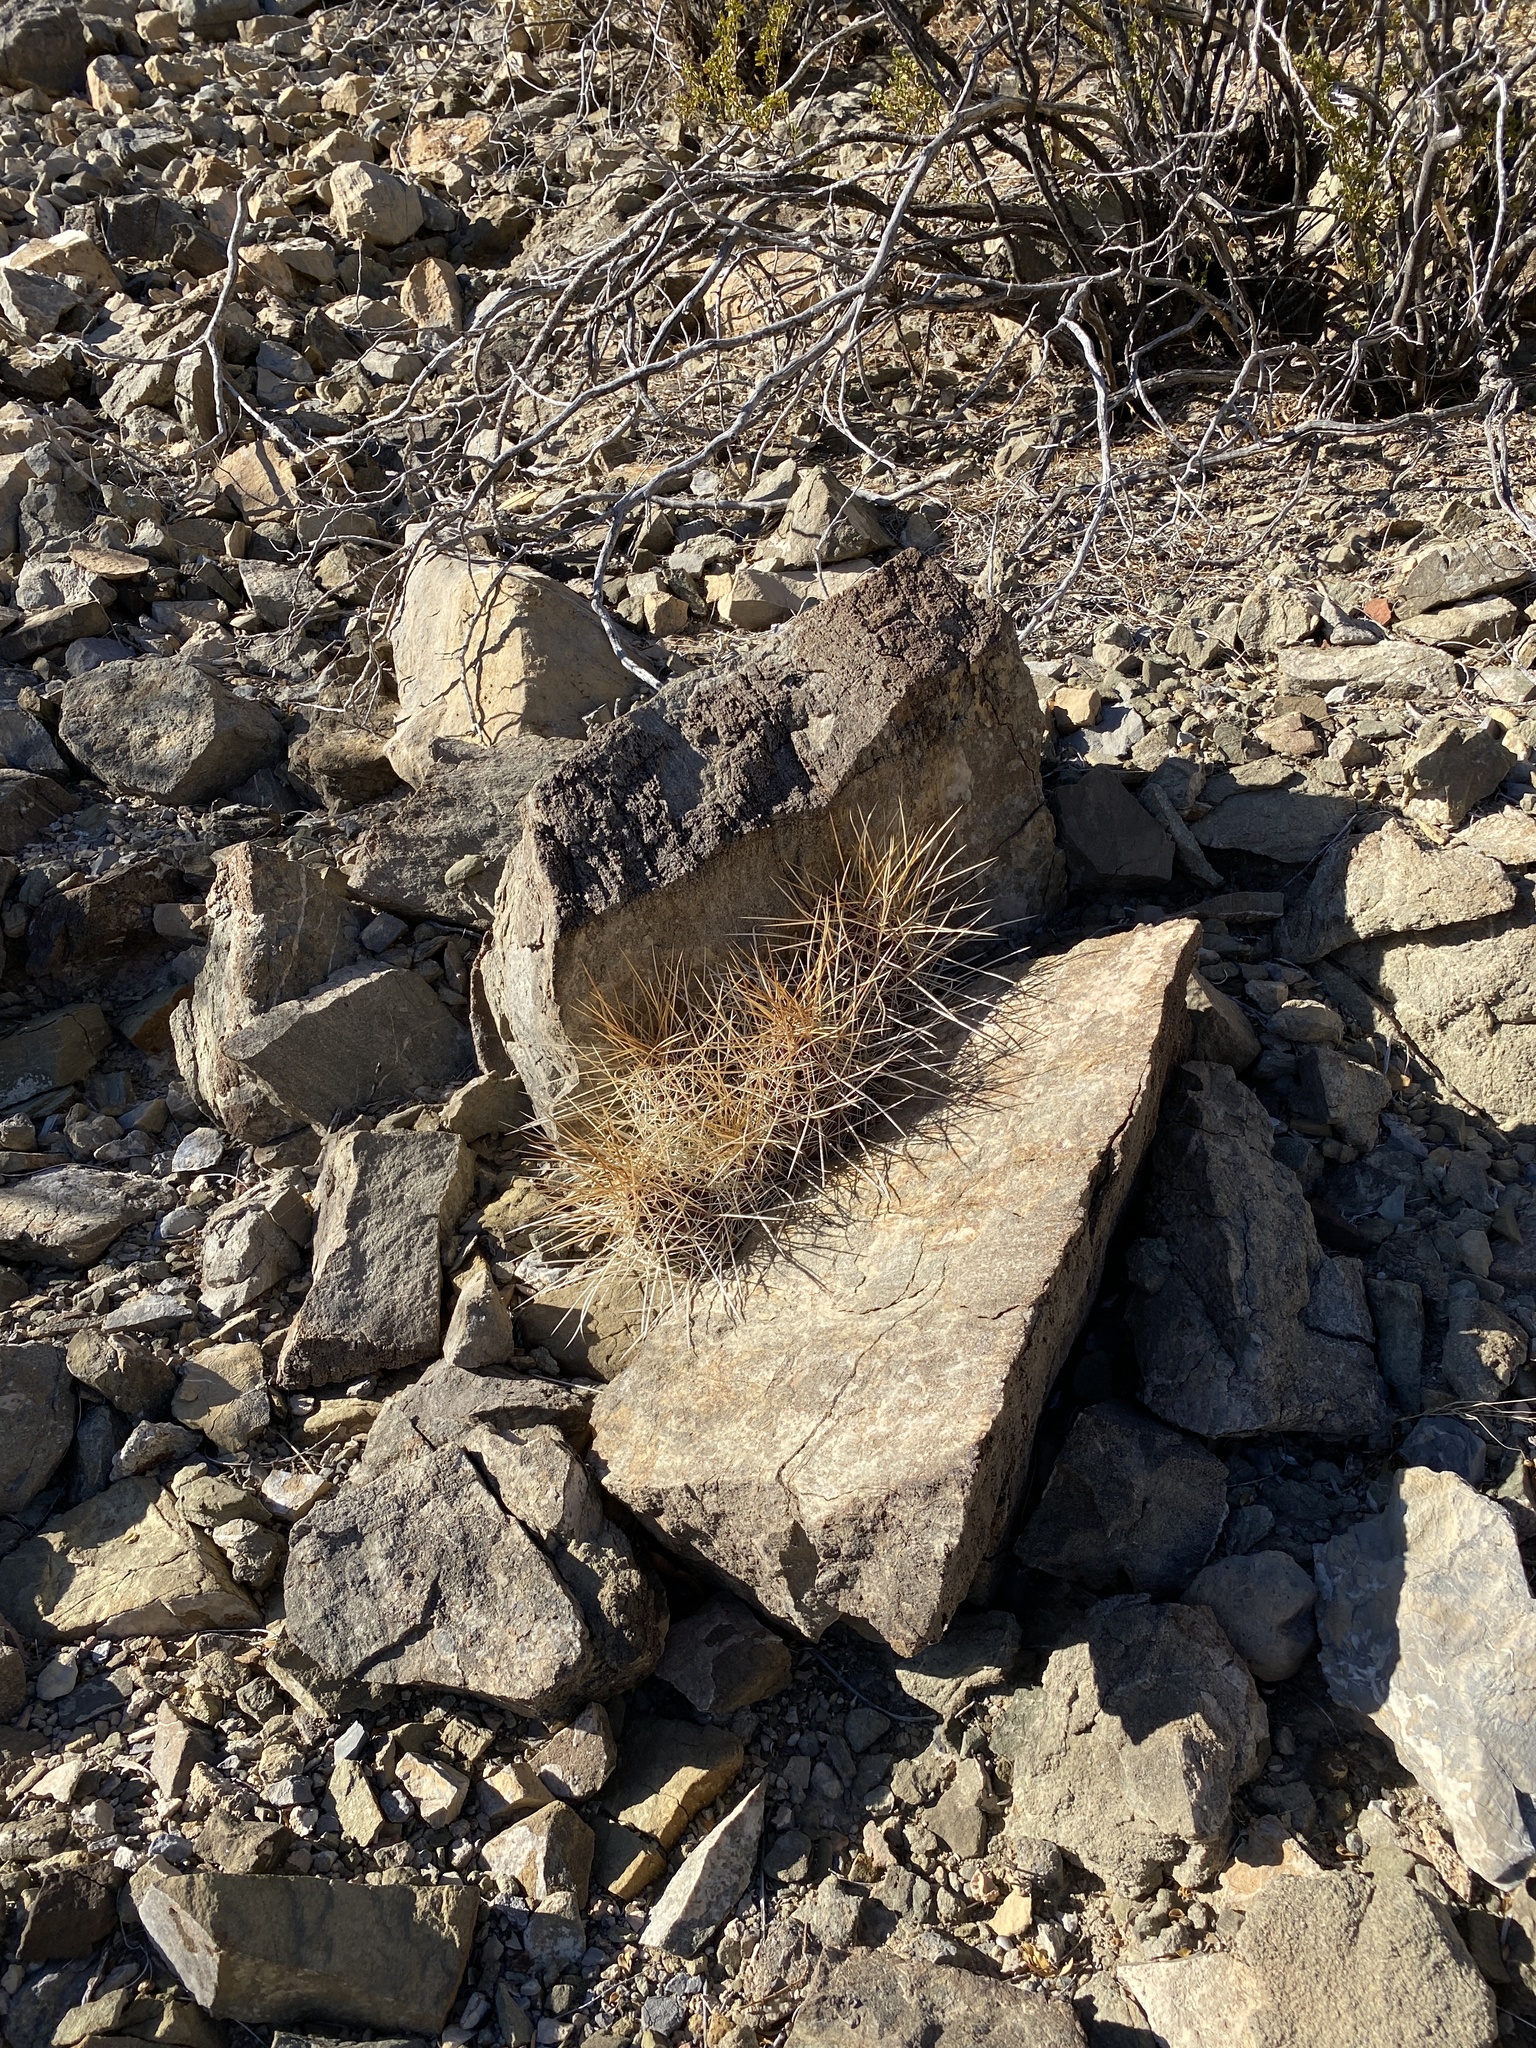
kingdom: Plantae
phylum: Tracheophyta
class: Magnoliopsida
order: Caryophyllales
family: Cactaceae
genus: Echinocereus
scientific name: Echinocereus stramineus
